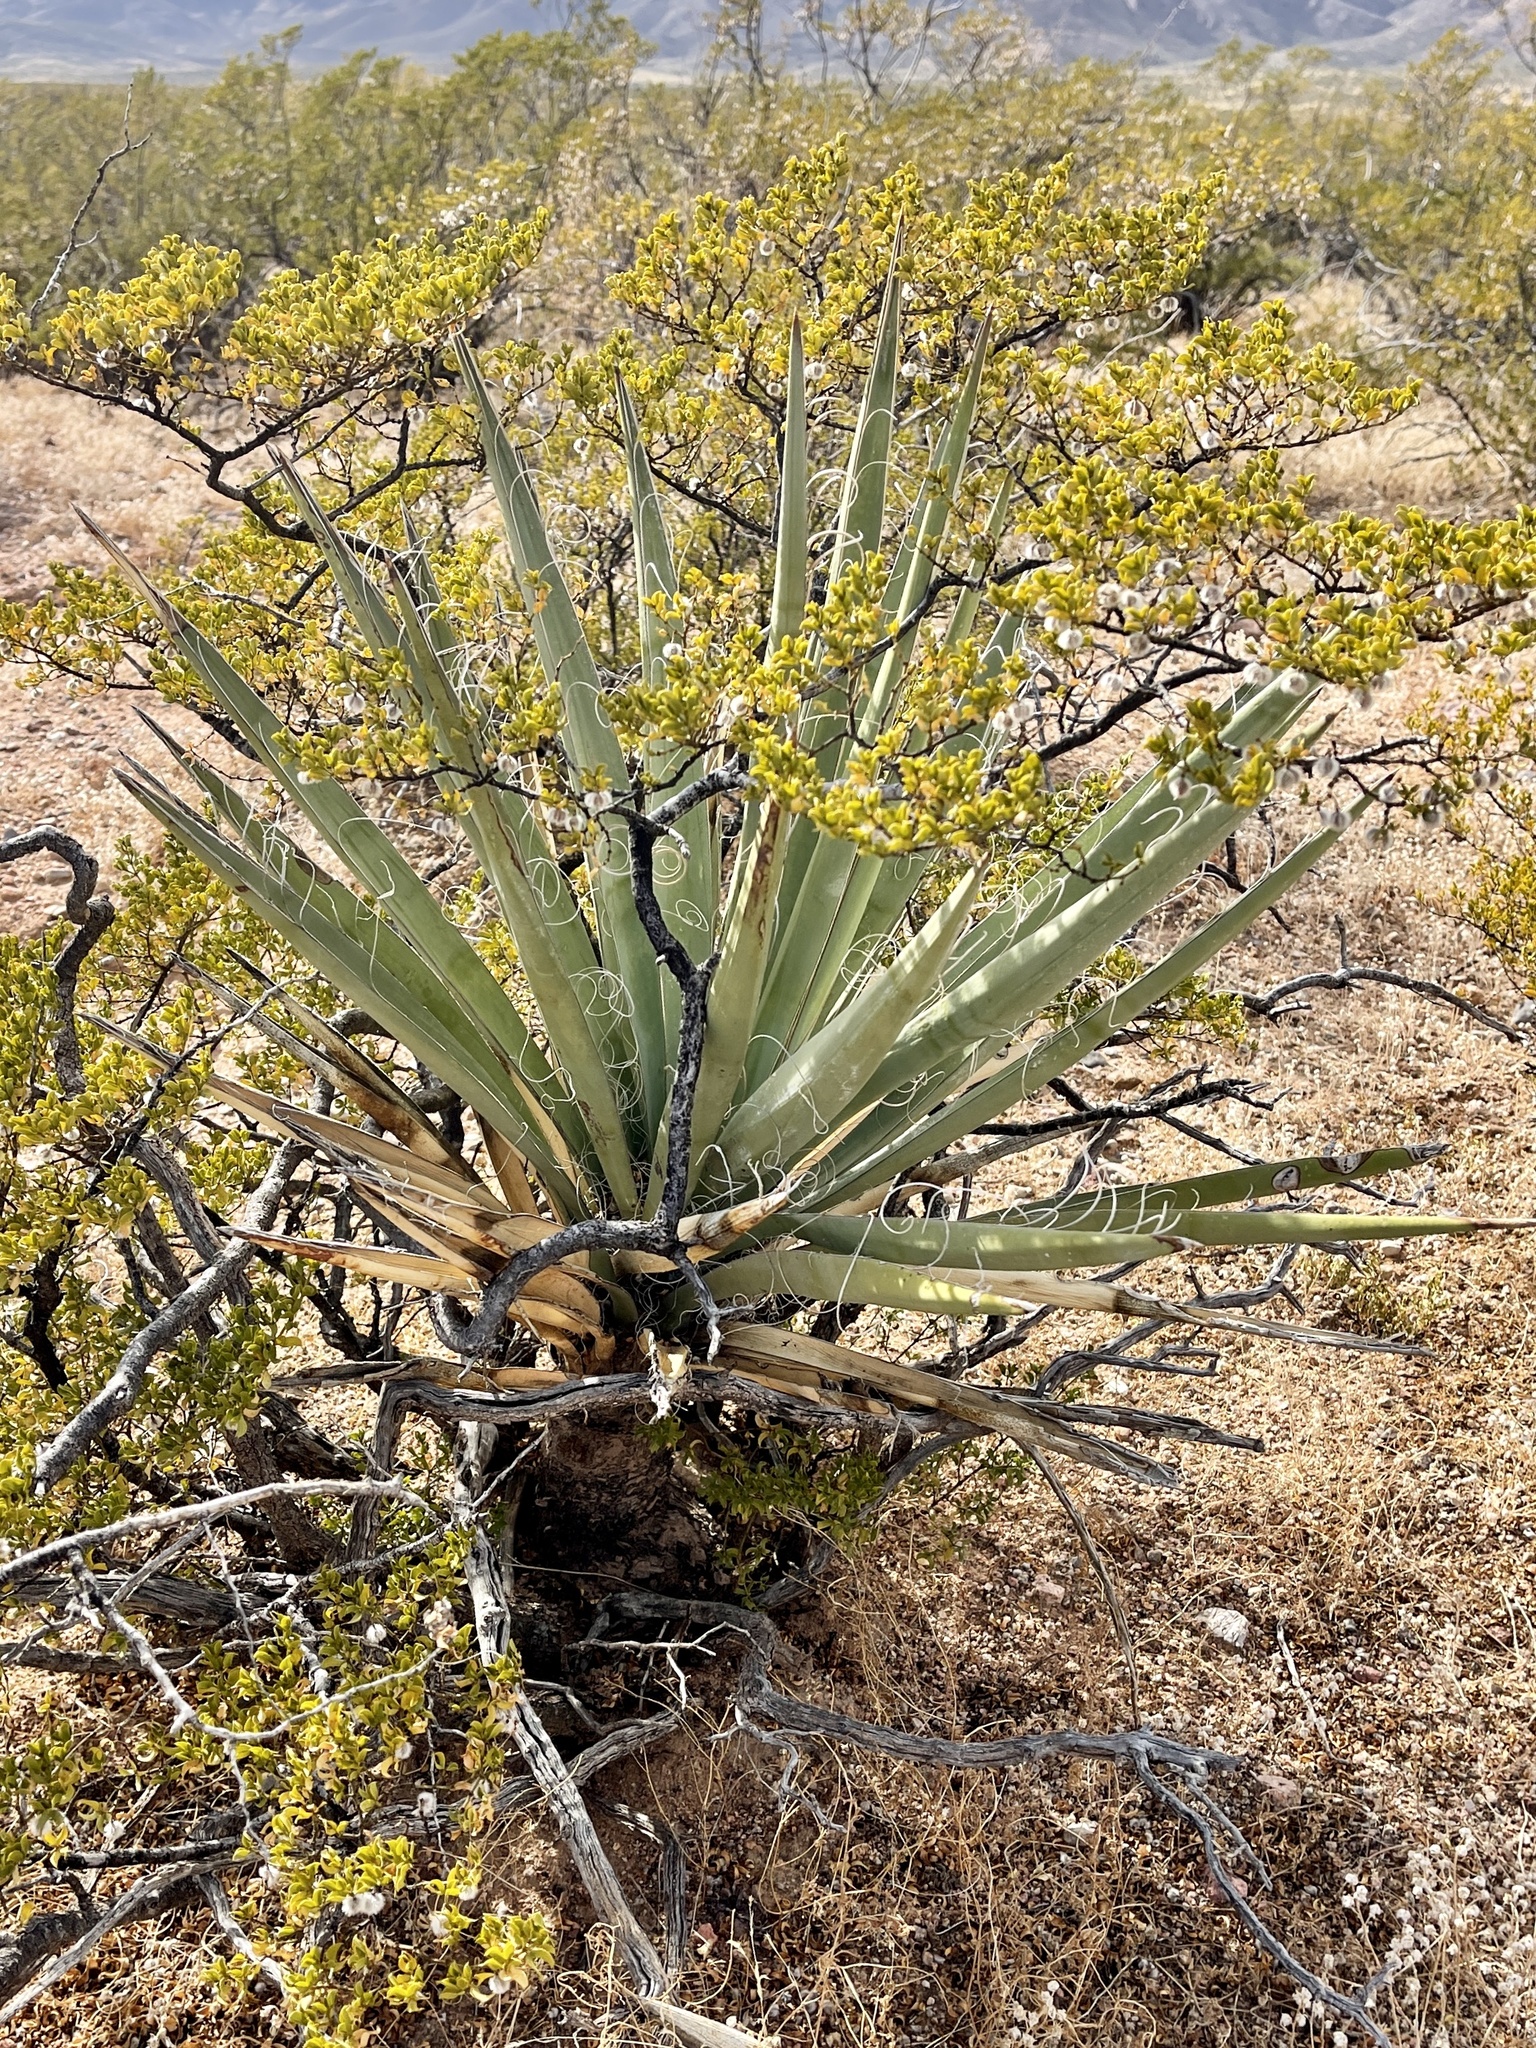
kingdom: Plantae
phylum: Tracheophyta
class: Liliopsida
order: Asparagales
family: Asparagaceae
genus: Yucca
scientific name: Yucca baccata
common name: Banana yucca
